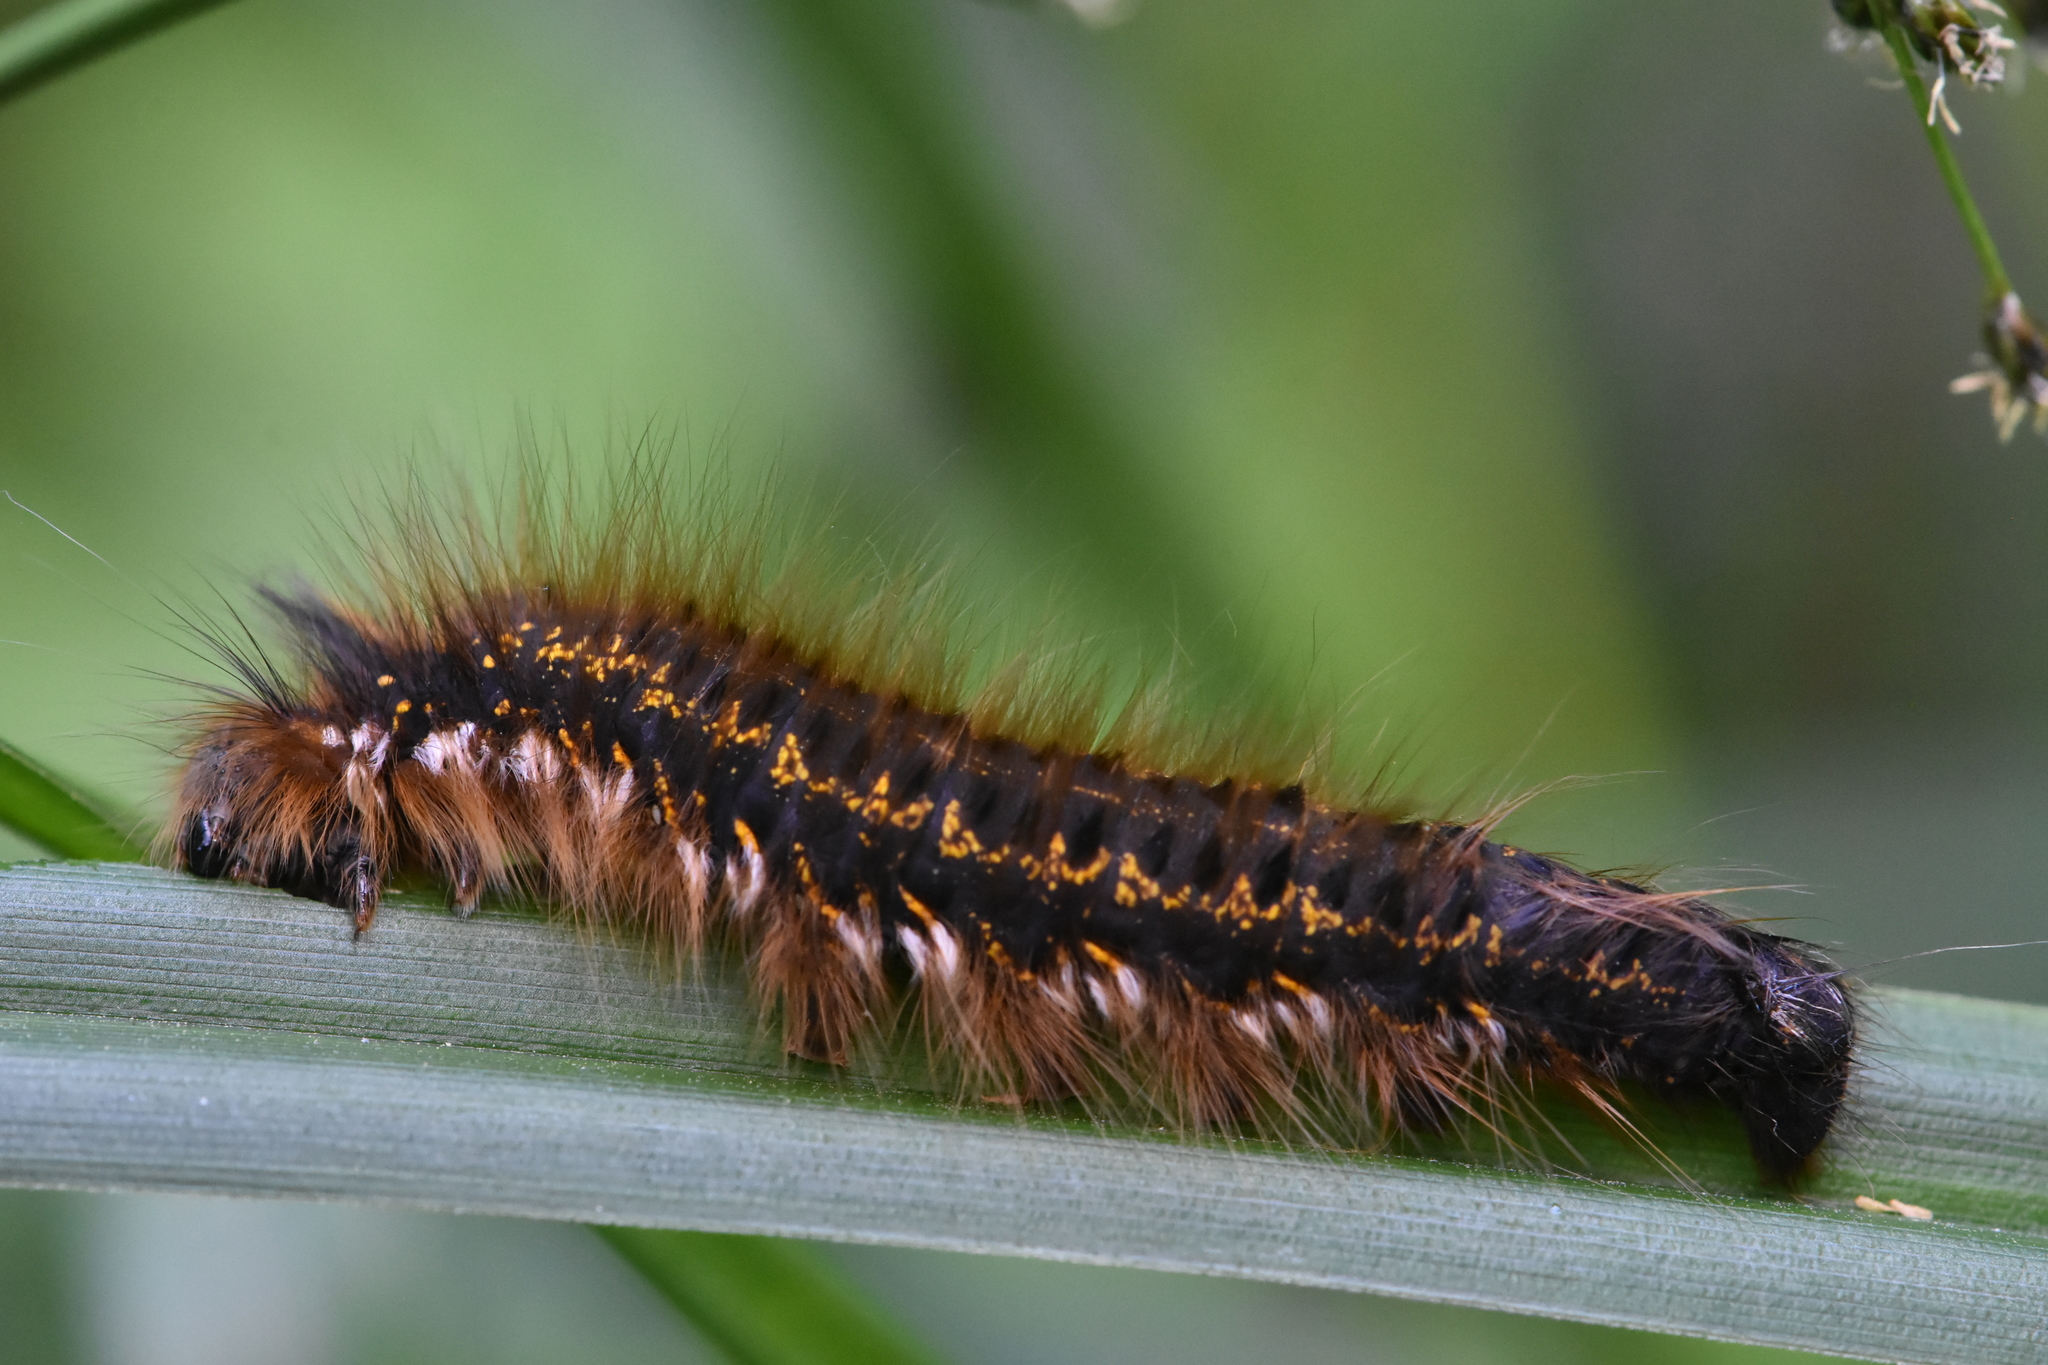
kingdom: Animalia
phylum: Arthropoda
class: Insecta
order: Lepidoptera
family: Lasiocampidae
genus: Euthrix
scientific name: Euthrix potatoria
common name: Drinker
